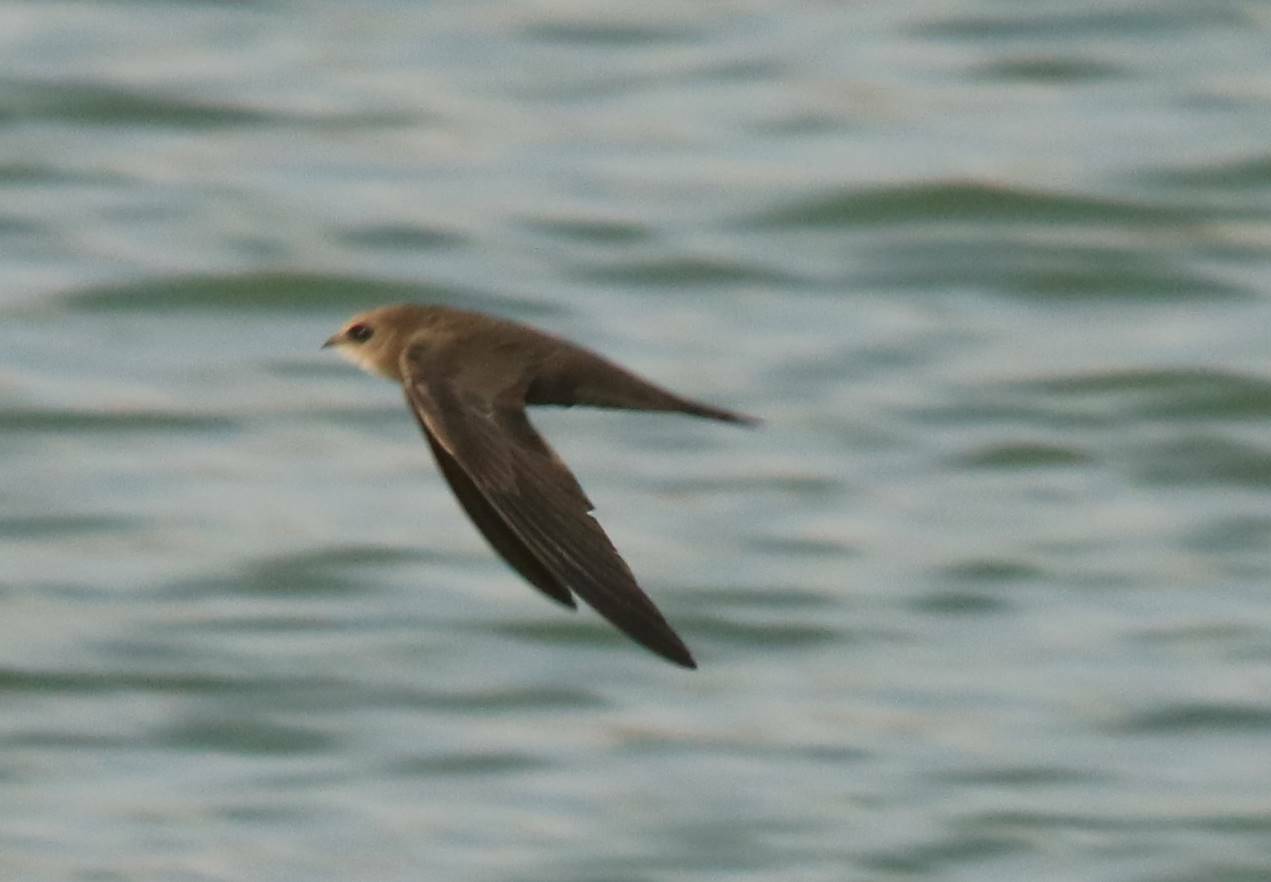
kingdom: Animalia
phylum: Chordata
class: Aves
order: Apodiformes
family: Apodidae
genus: Apus
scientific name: Apus pallidus
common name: Pallid swift
